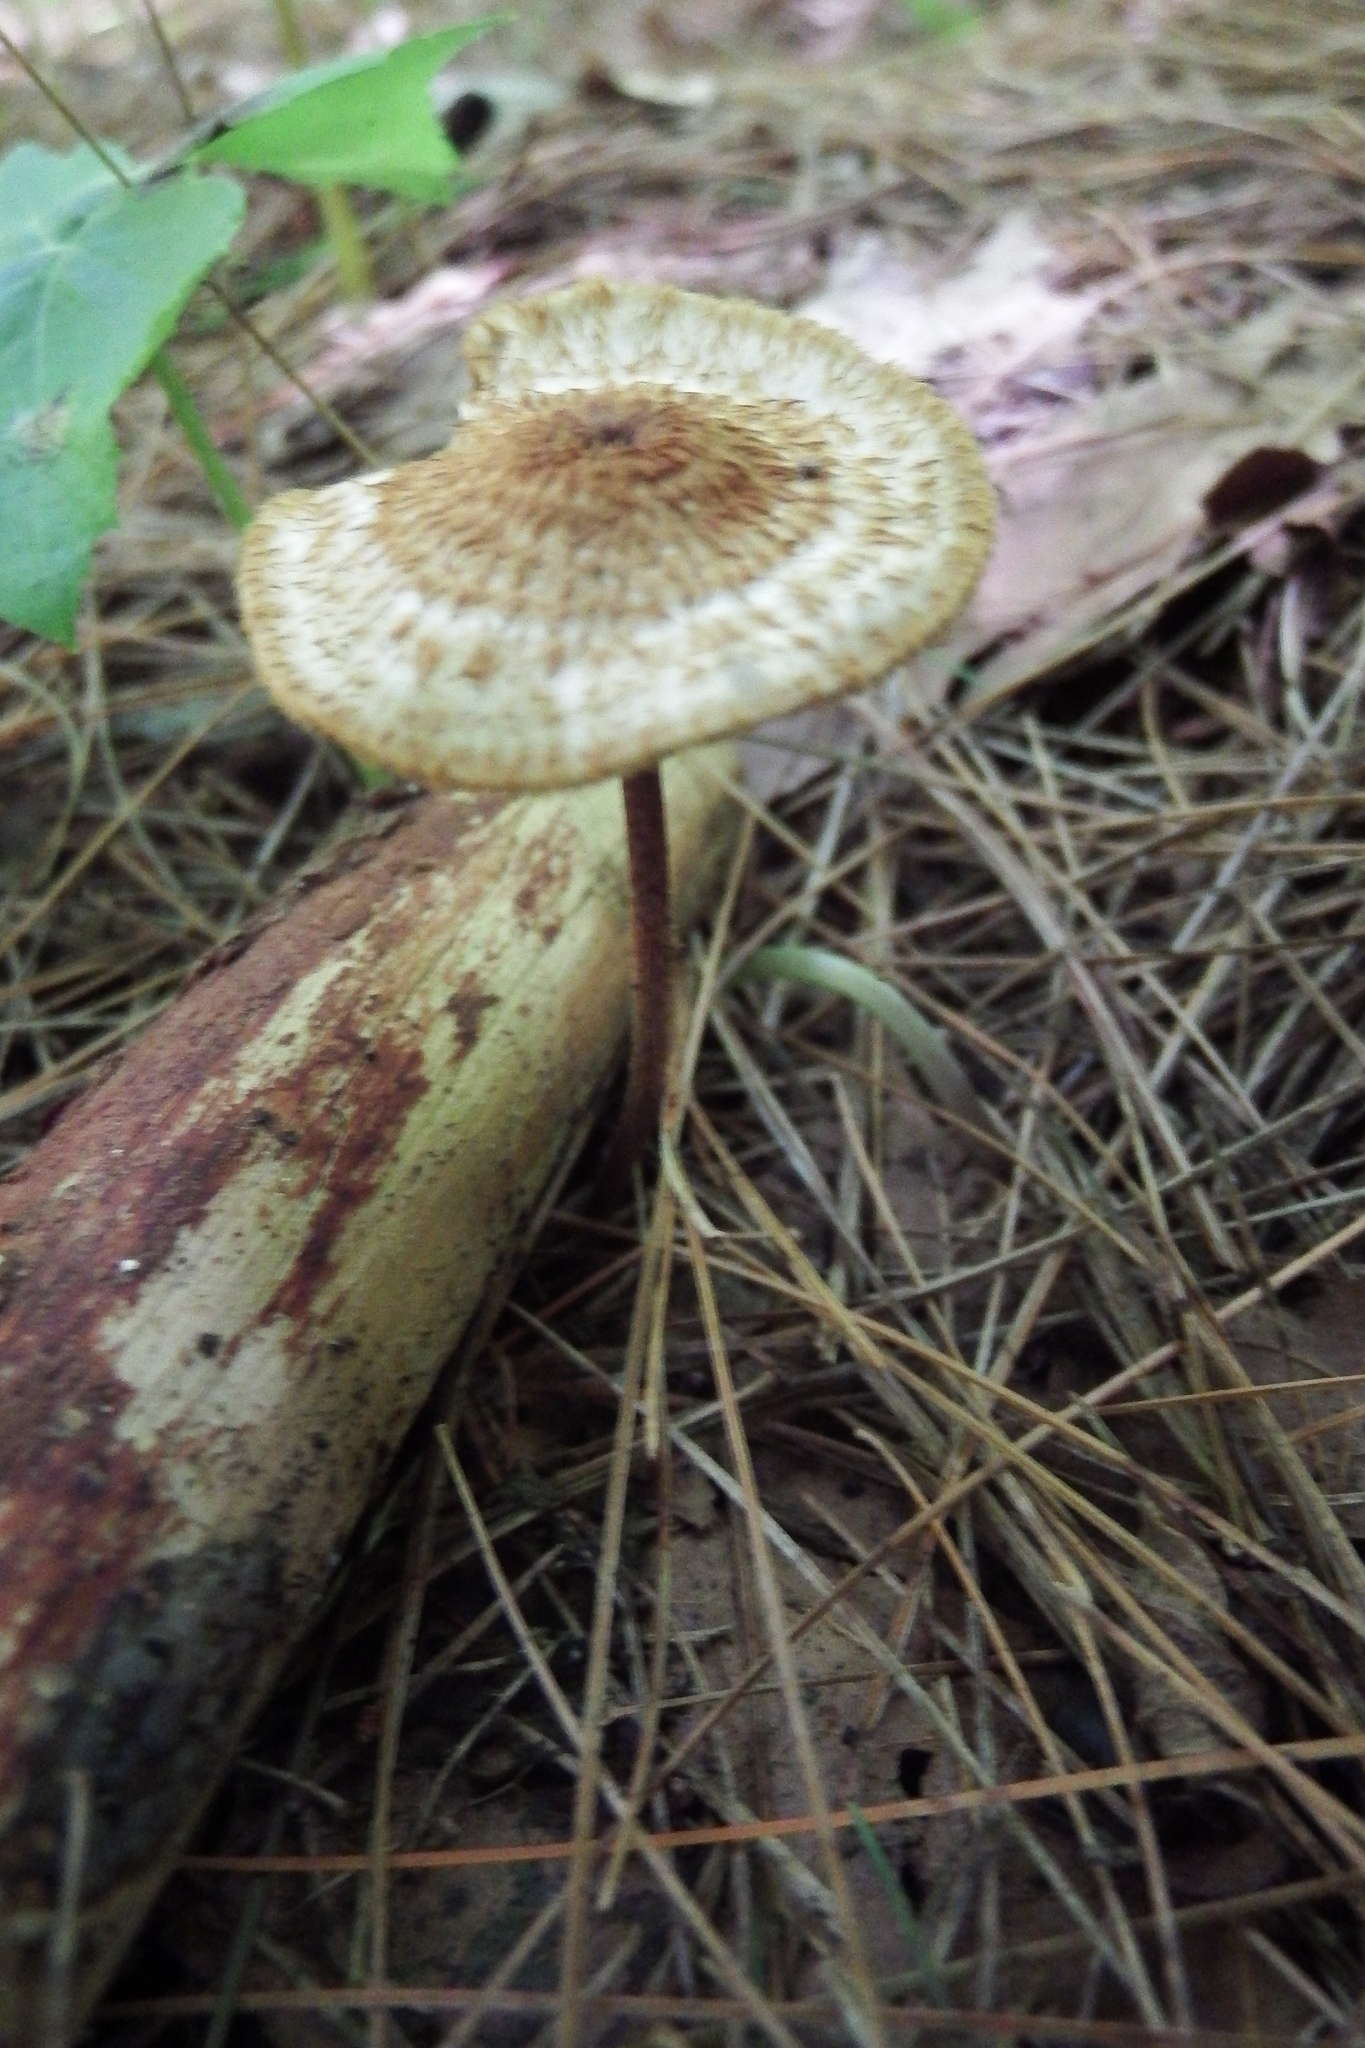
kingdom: Fungi
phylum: Basidiomycota
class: Agaricomycetes
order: Agaricales
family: Tricholomataceae
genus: Collybia
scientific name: Collybia zonata
